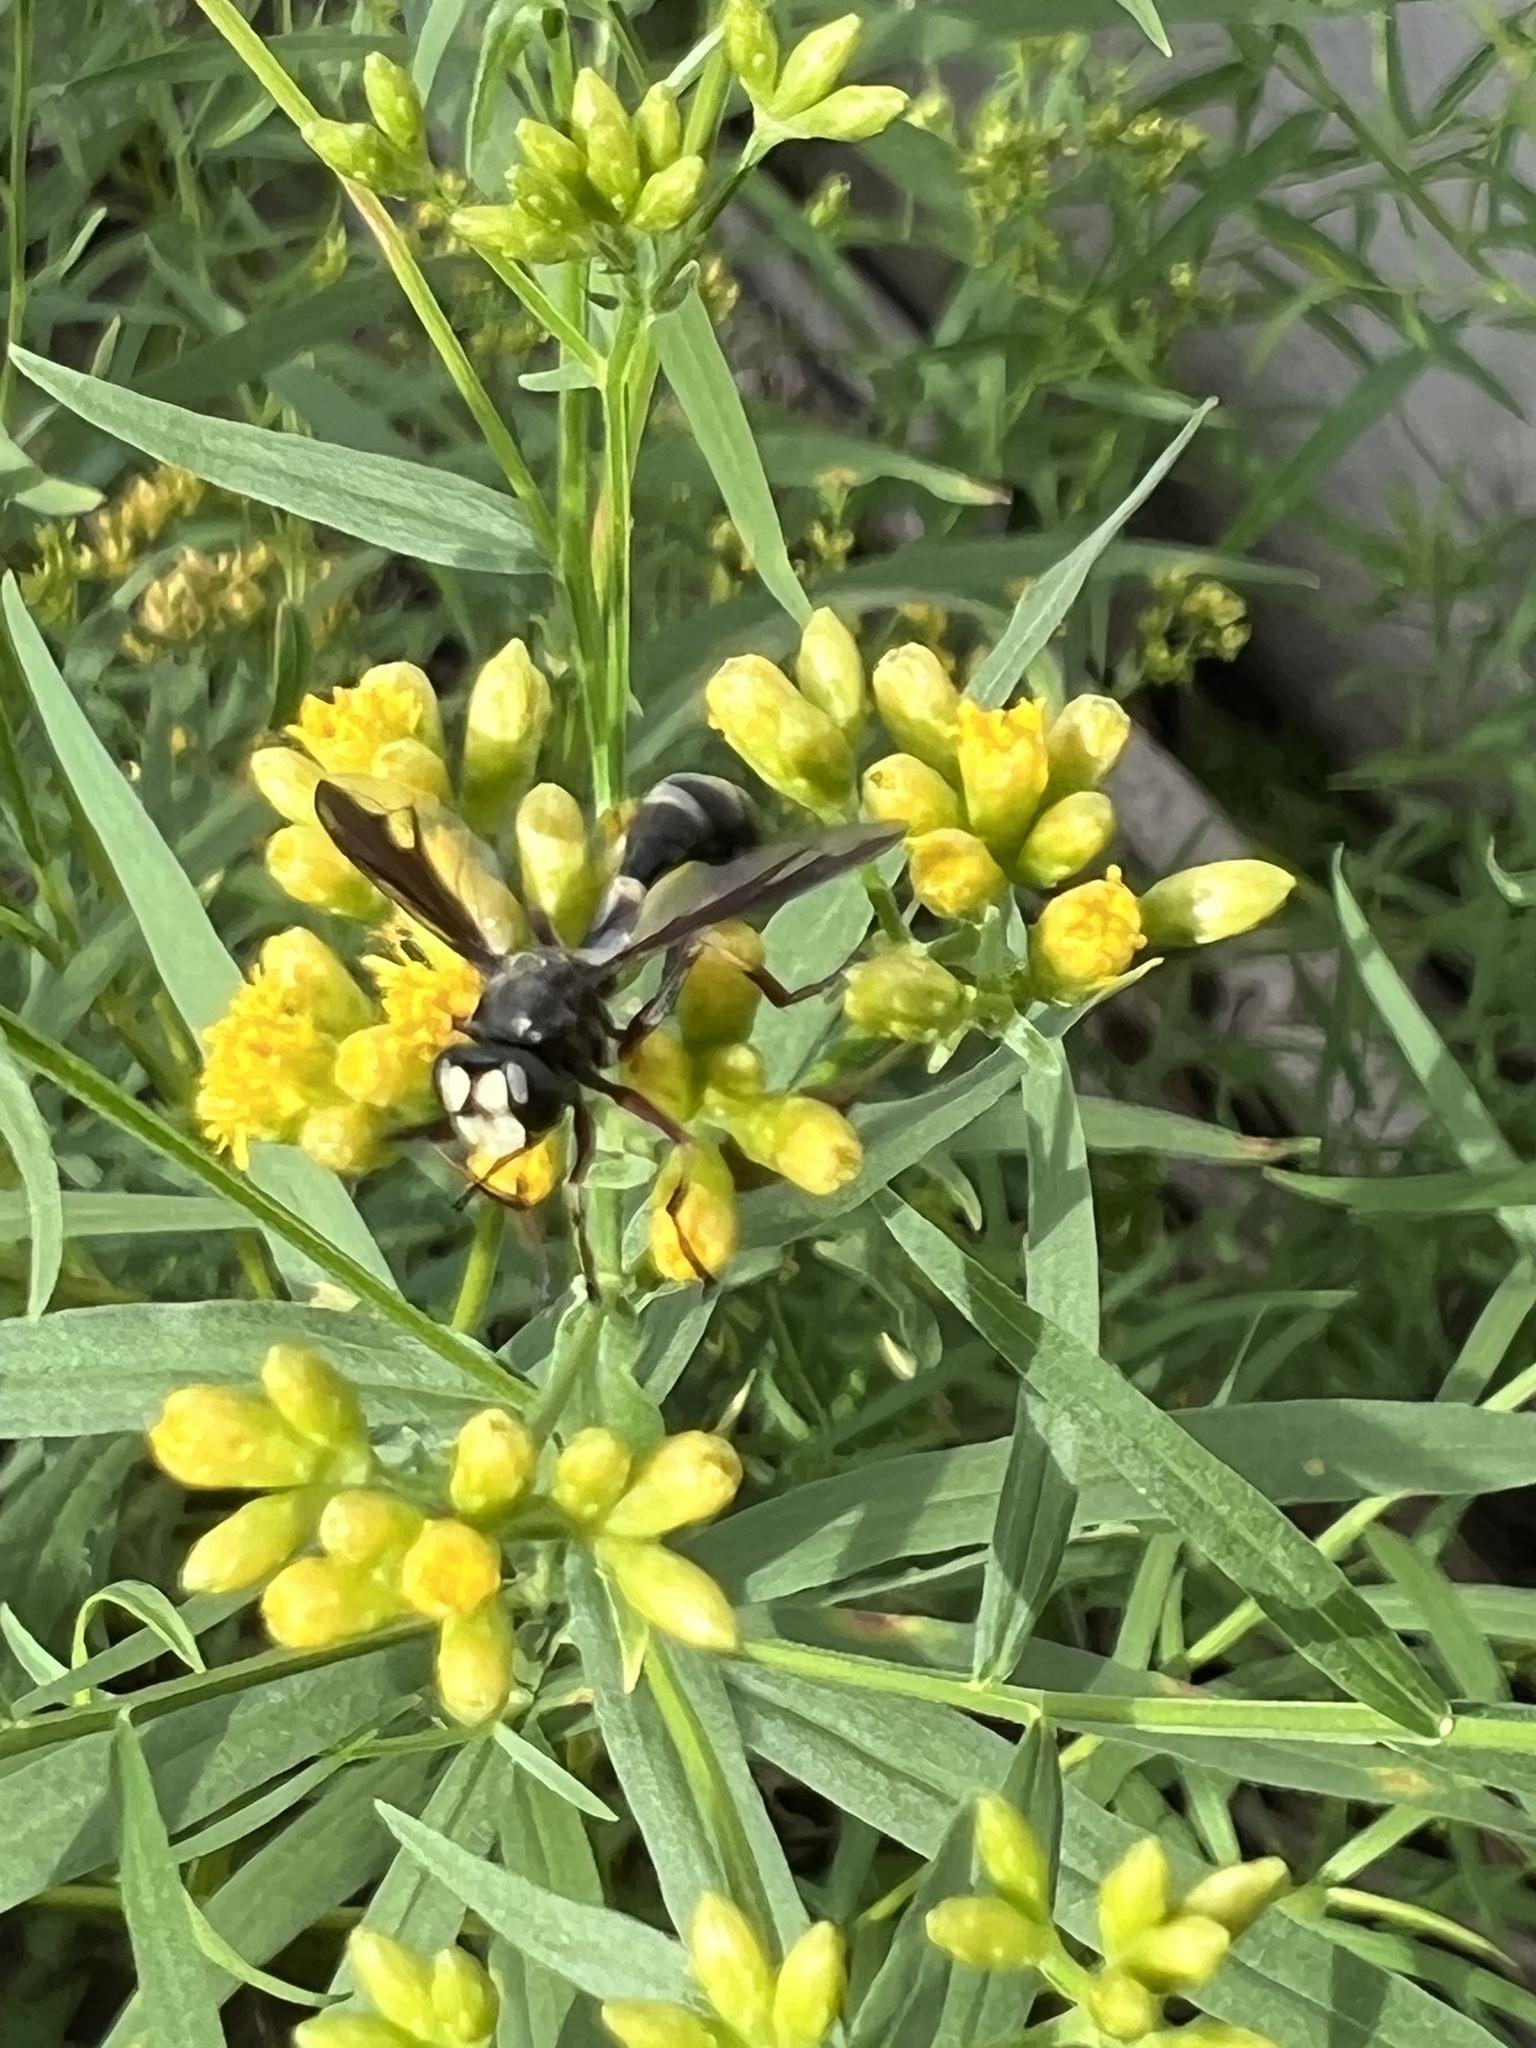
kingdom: Animalia
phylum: Arthropoda
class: Insecta
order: Diptera
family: Conopidae
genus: Physocephala
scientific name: Physocephala furcillata
